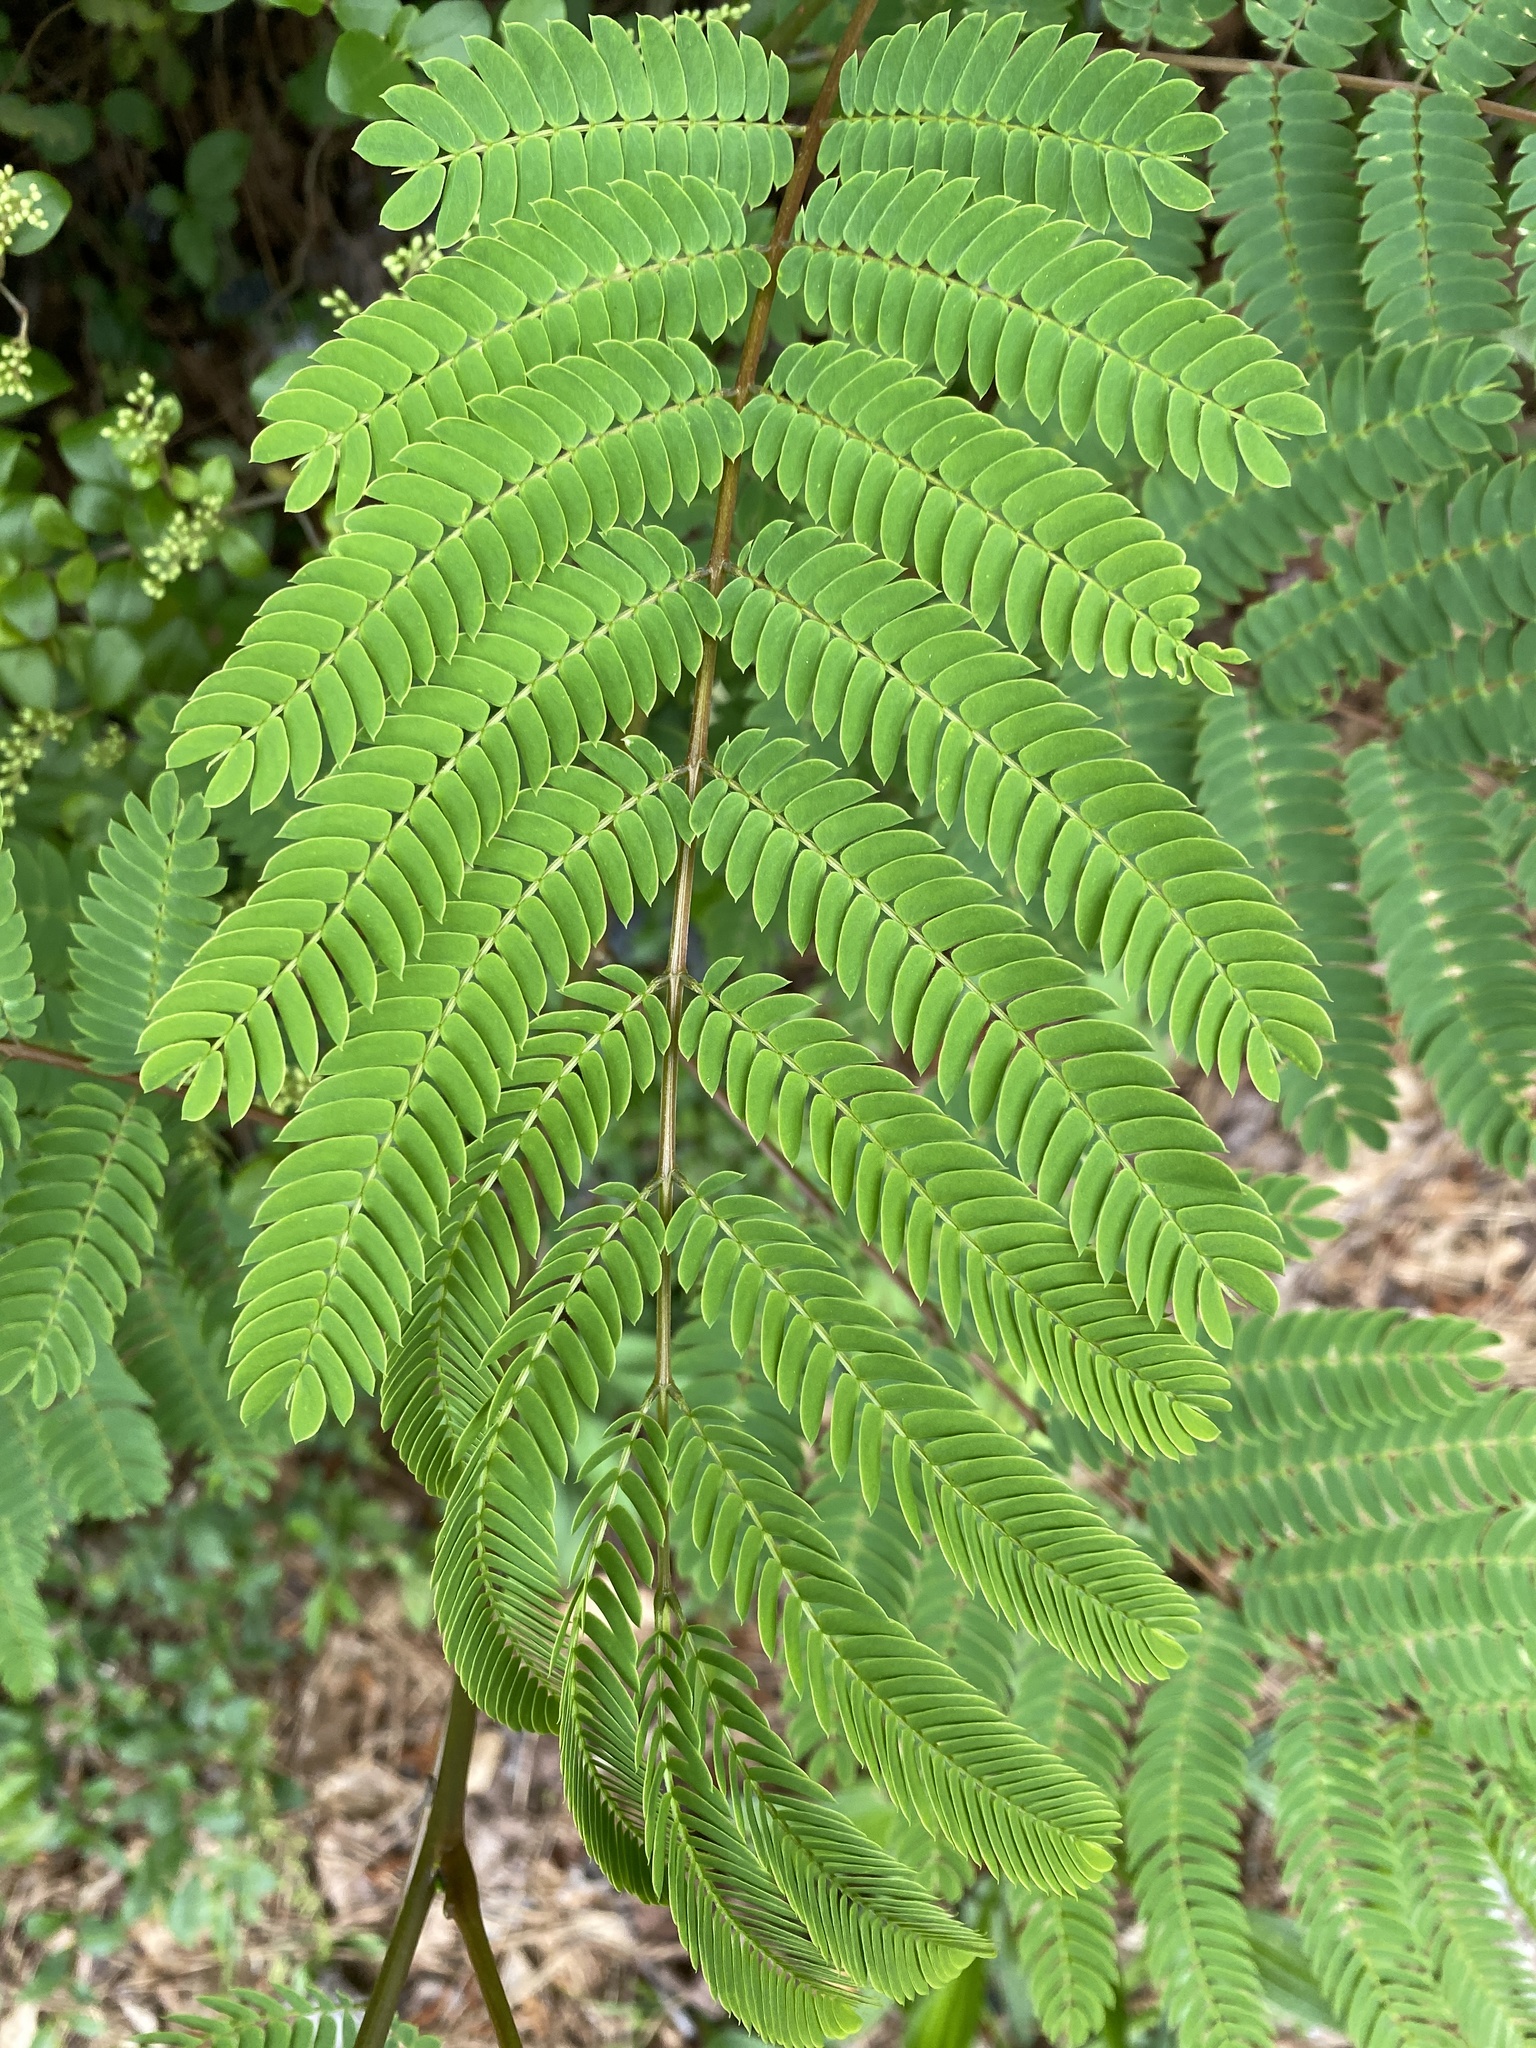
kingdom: Plantae
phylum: Tracheophyta
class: Magnoliopsida
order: Fabales
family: Fabaceae
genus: Albizia
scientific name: Albizia julibrissin
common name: Silktree
